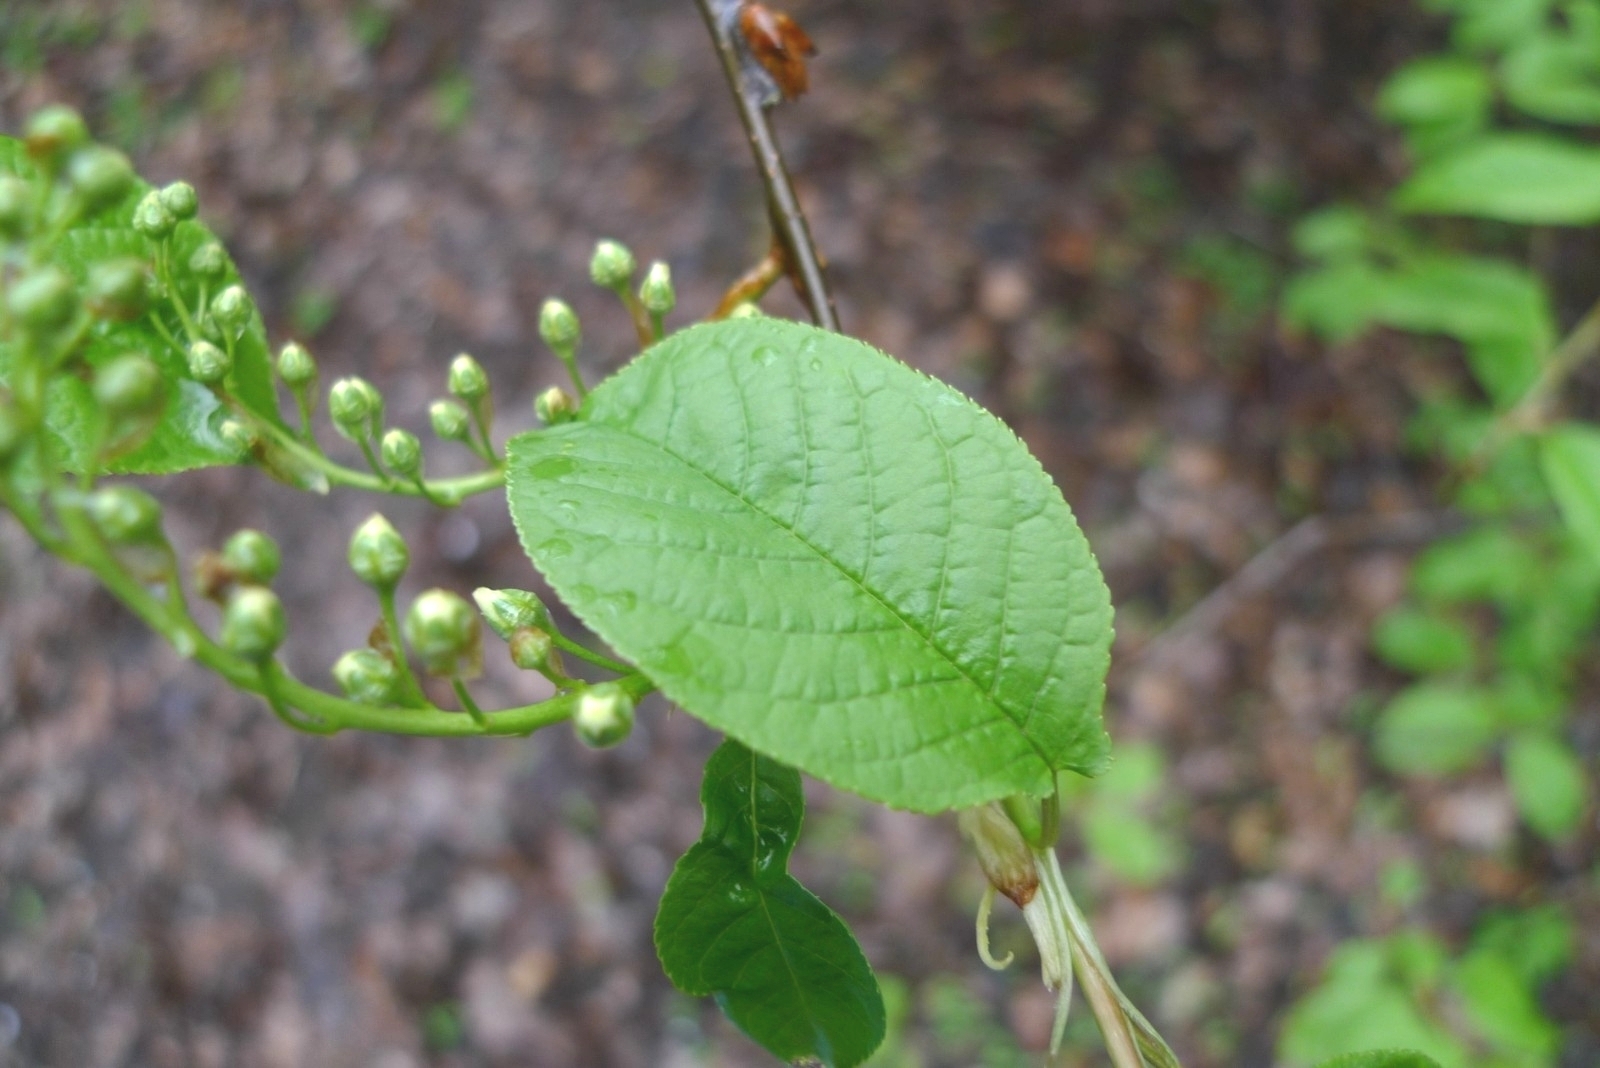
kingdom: Plantae
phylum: Tracheophyta
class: Magnoliopsida
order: Rosales
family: Rosaceae
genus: Prunus
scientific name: Prunus padus
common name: Bird cherry
